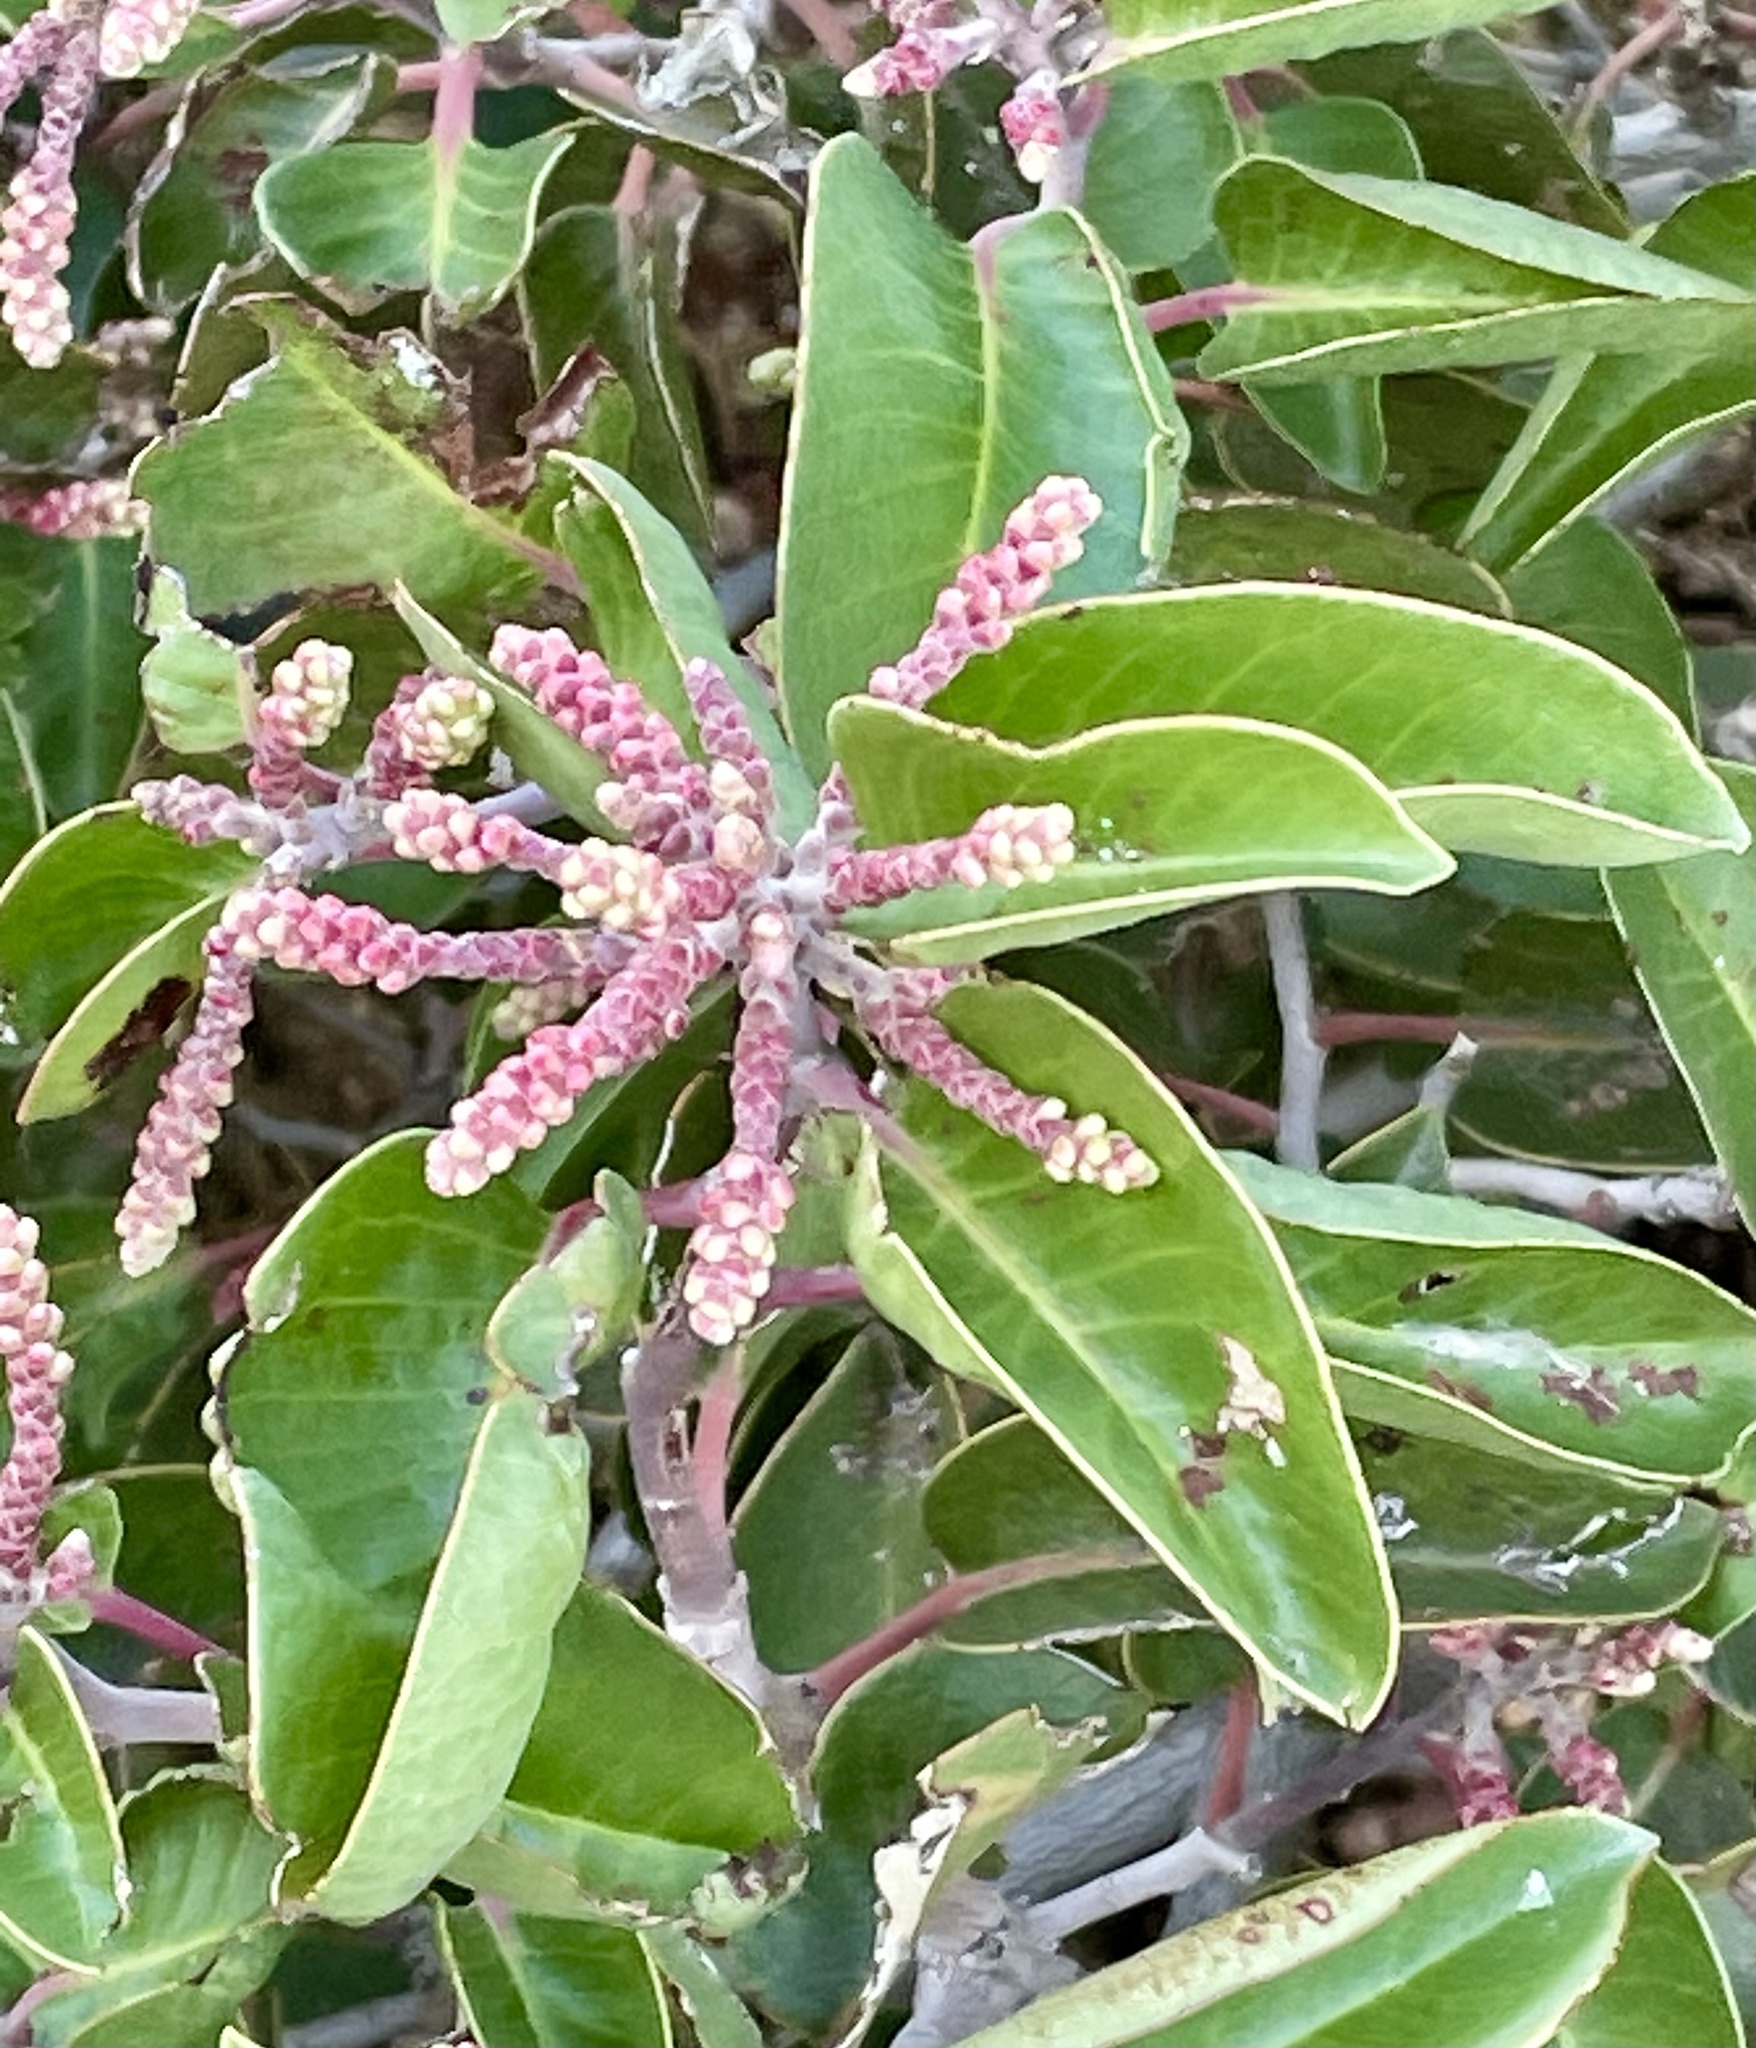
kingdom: Plantae
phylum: Tracheophyta
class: Magnoliopsida
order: Sapindales
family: Anacardiaceae
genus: Rhus
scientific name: Rhus ovata
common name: Sugar sumac
